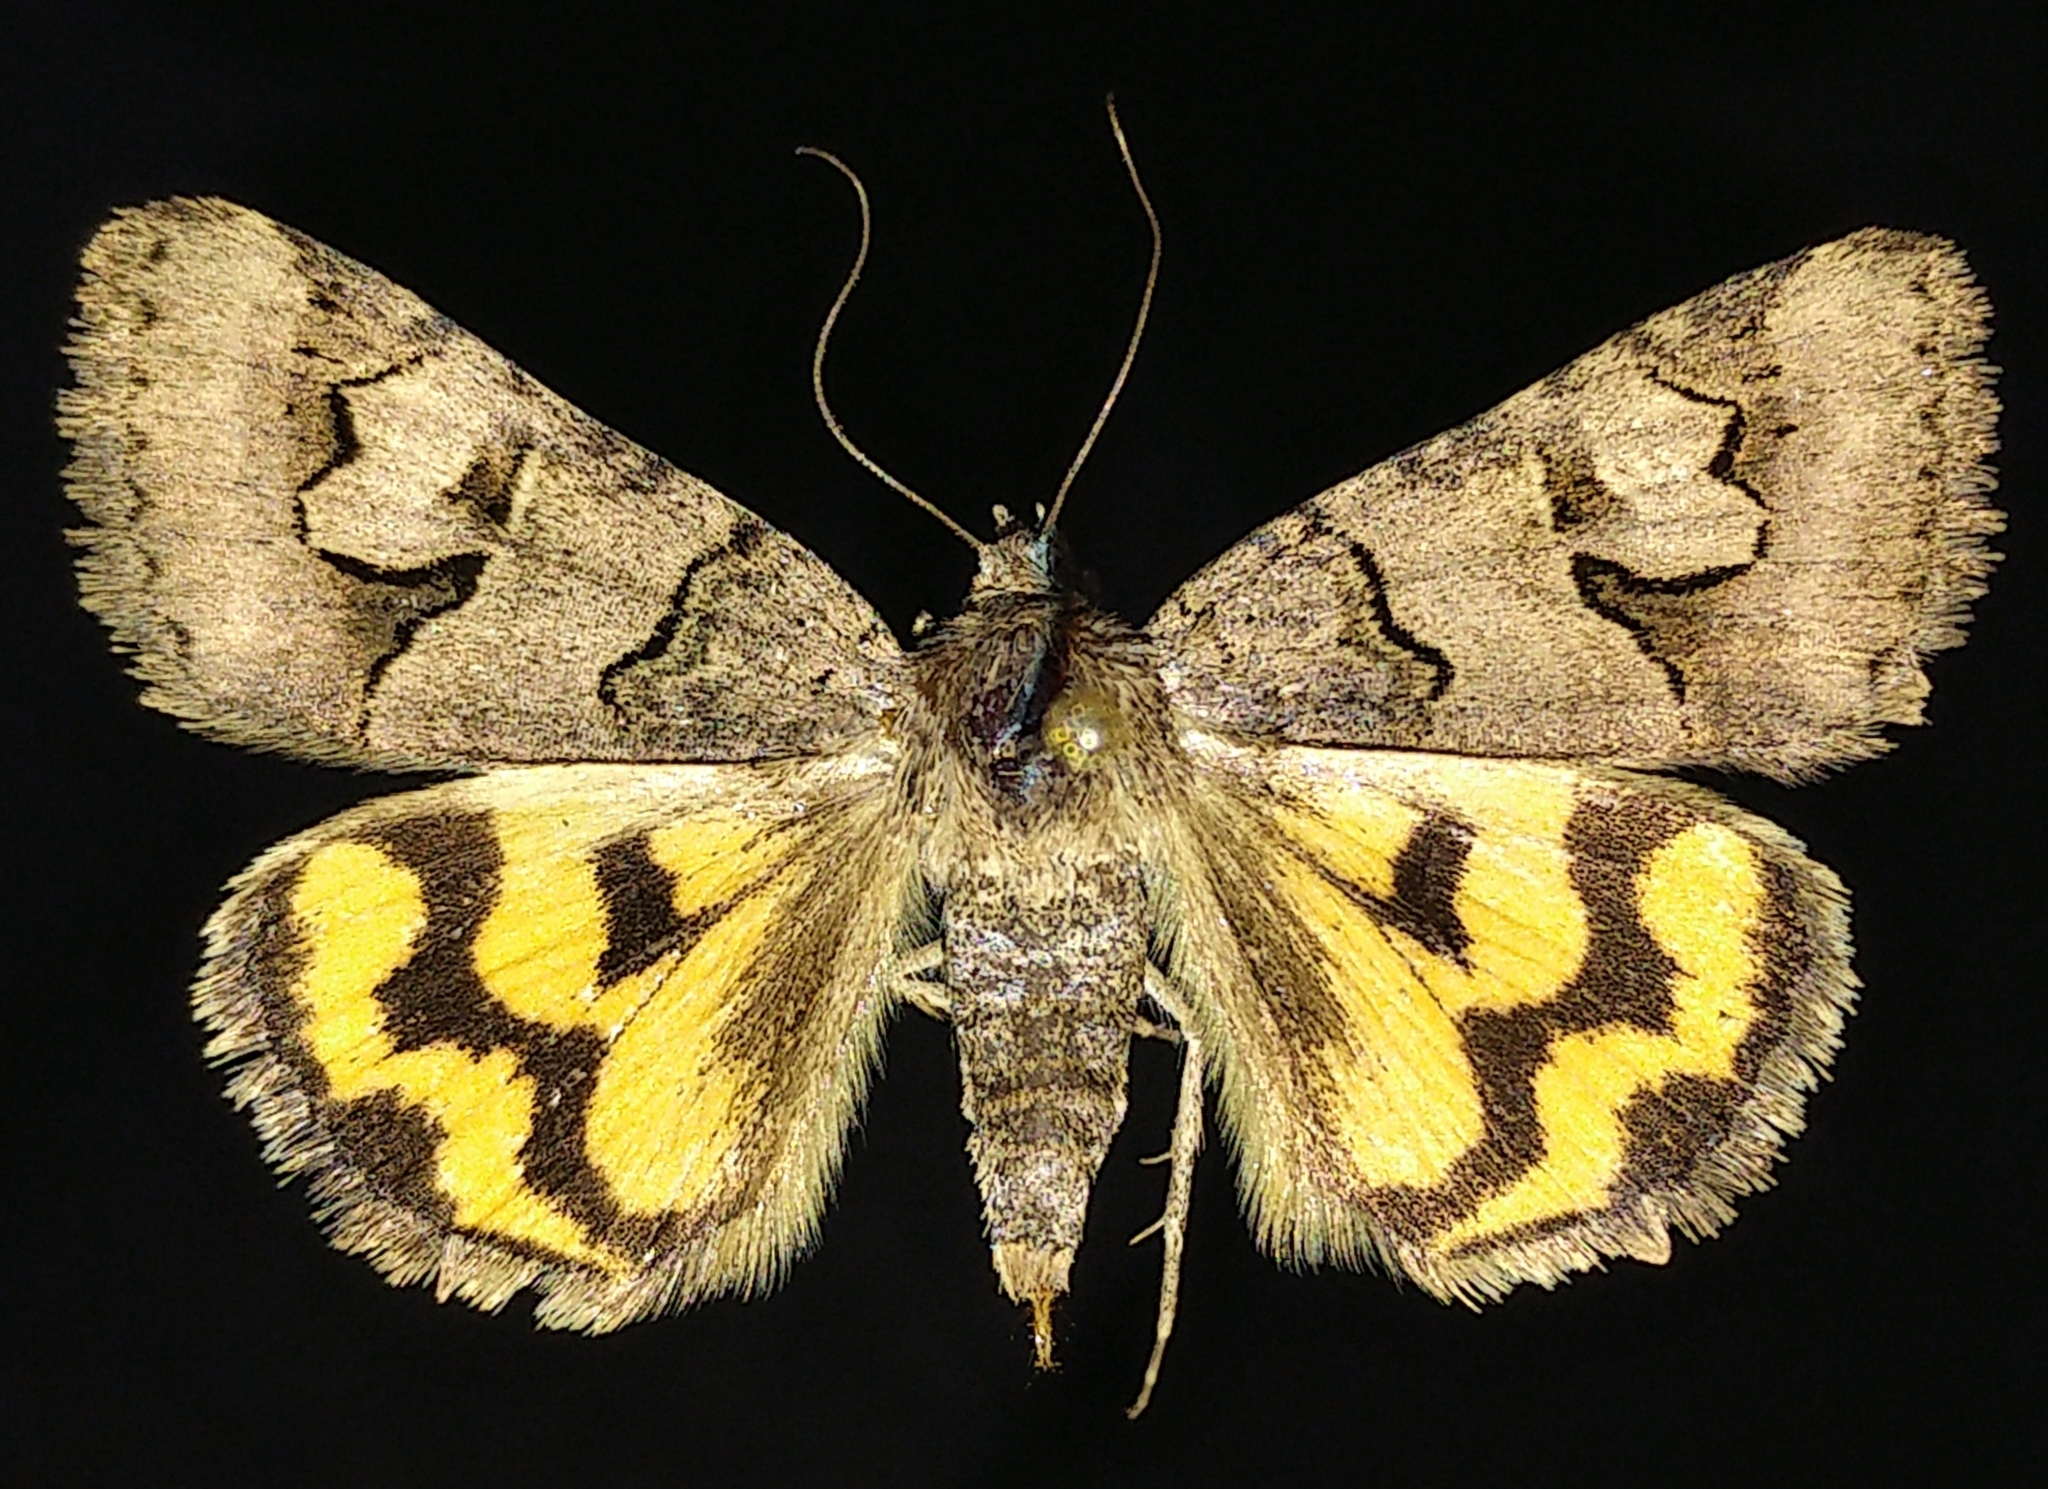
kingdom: Animalia
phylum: Arthropoda
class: Insecta
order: Lepidoptera
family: Erebidae
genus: Drasteria
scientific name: Drasteria adumbrata
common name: Shadowy arches
